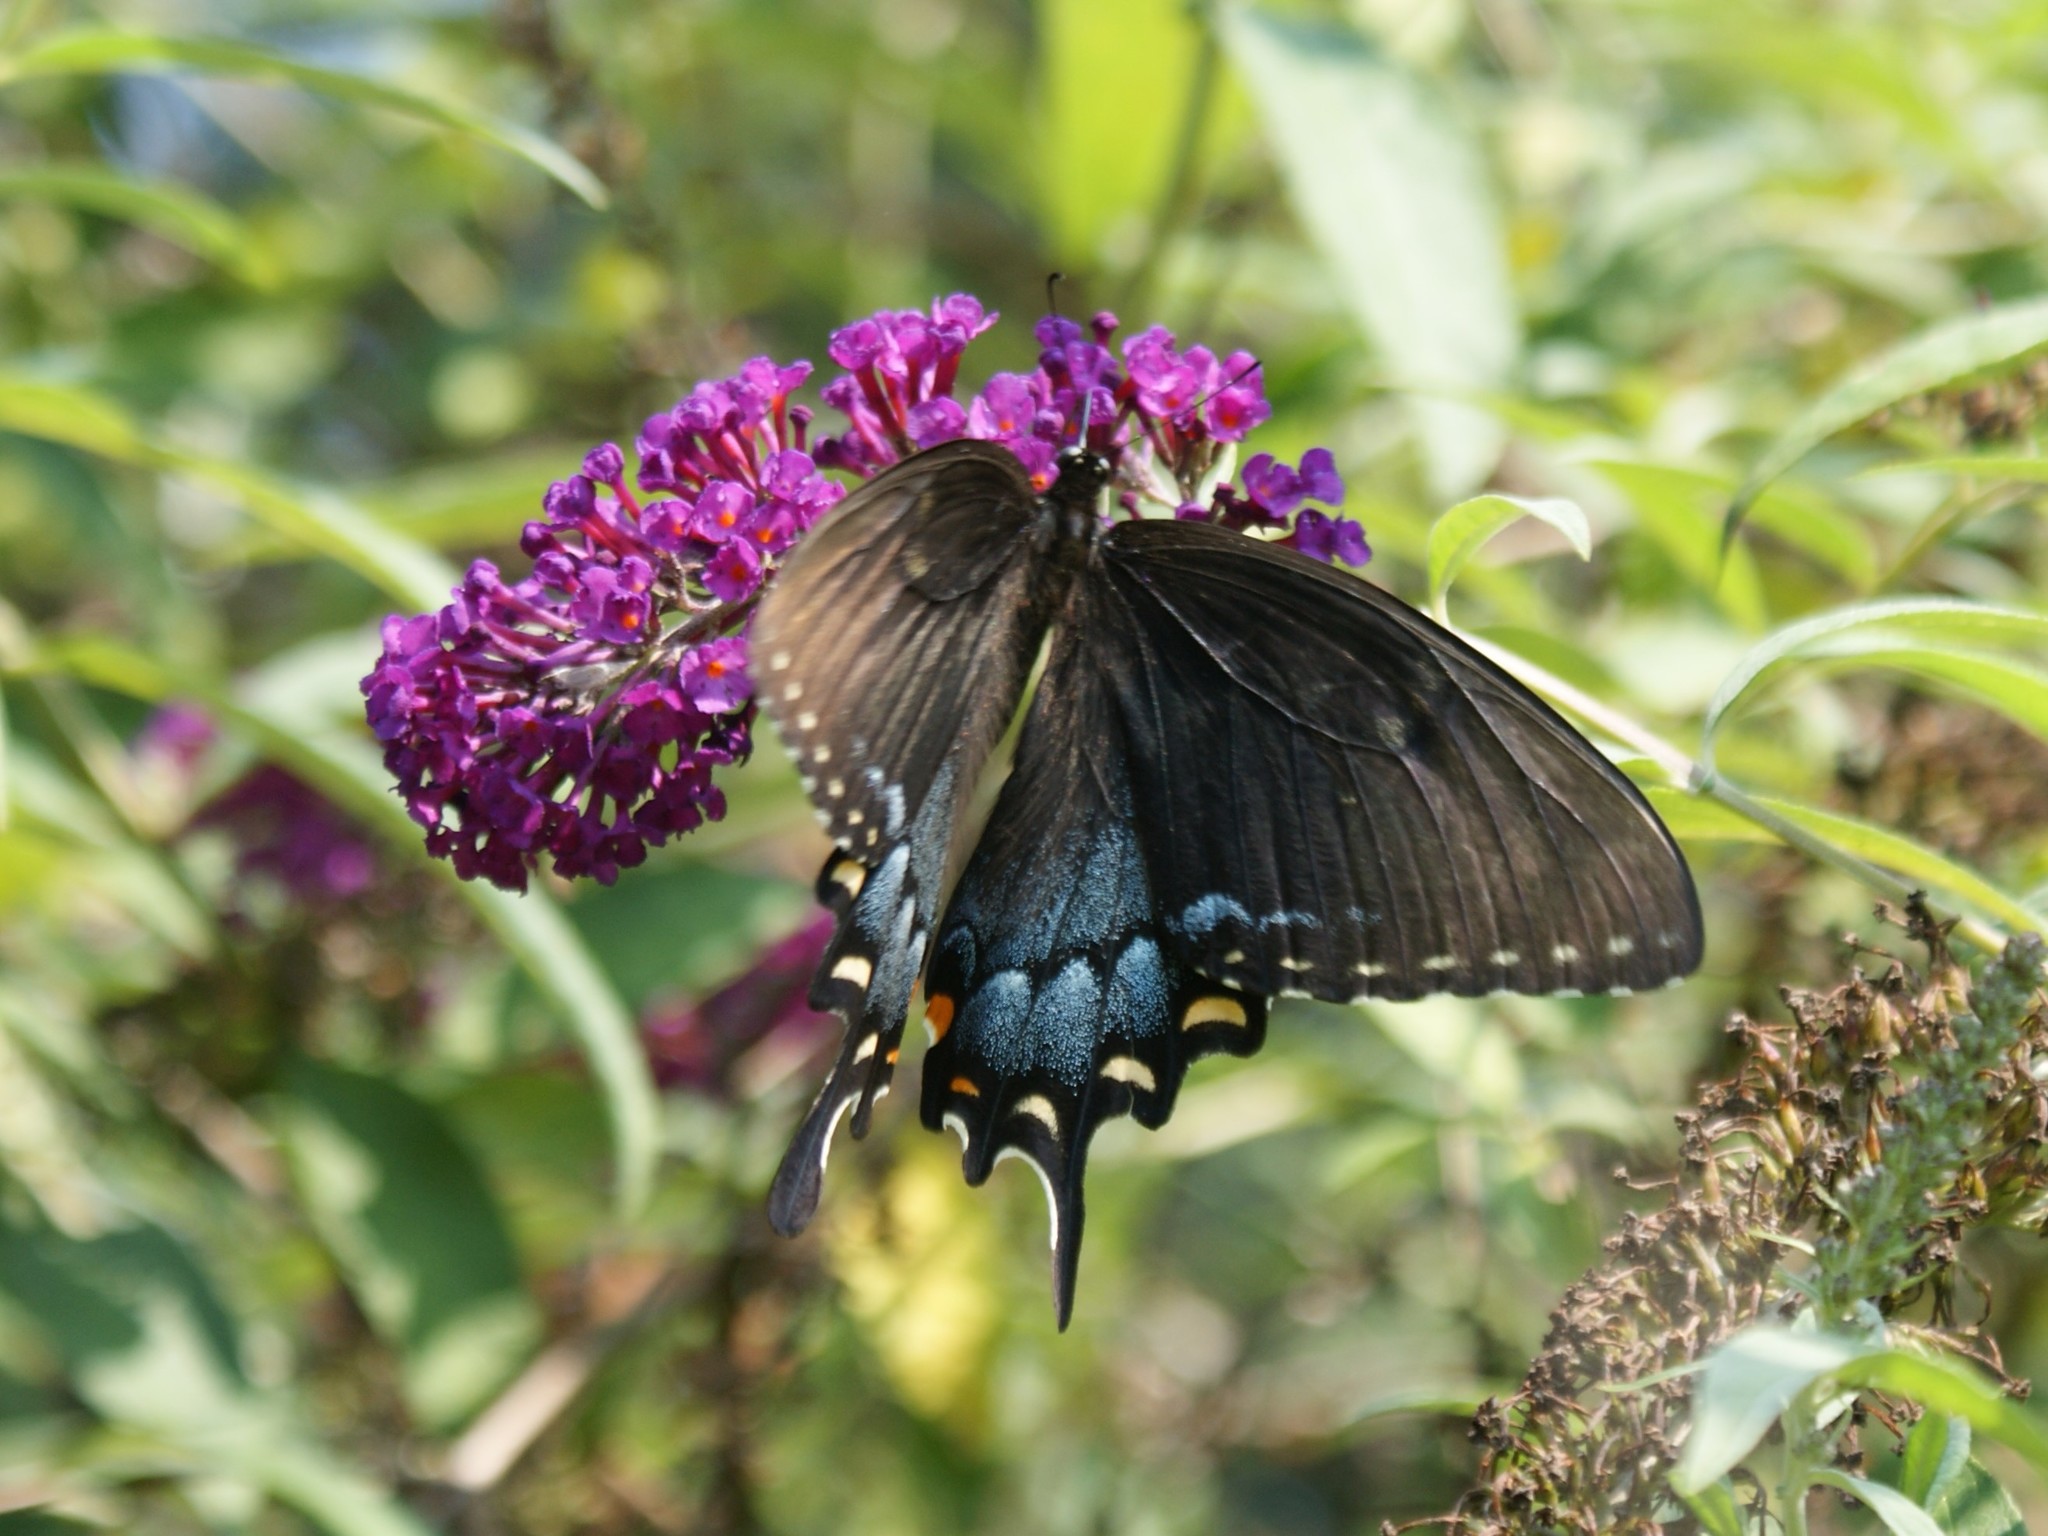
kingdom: Animalia
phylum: Arthropoda
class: Insecta
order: Lepidoptera
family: Papilionidae
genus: Papilio
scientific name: Papilio glaucus
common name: Tiger swallowtail
